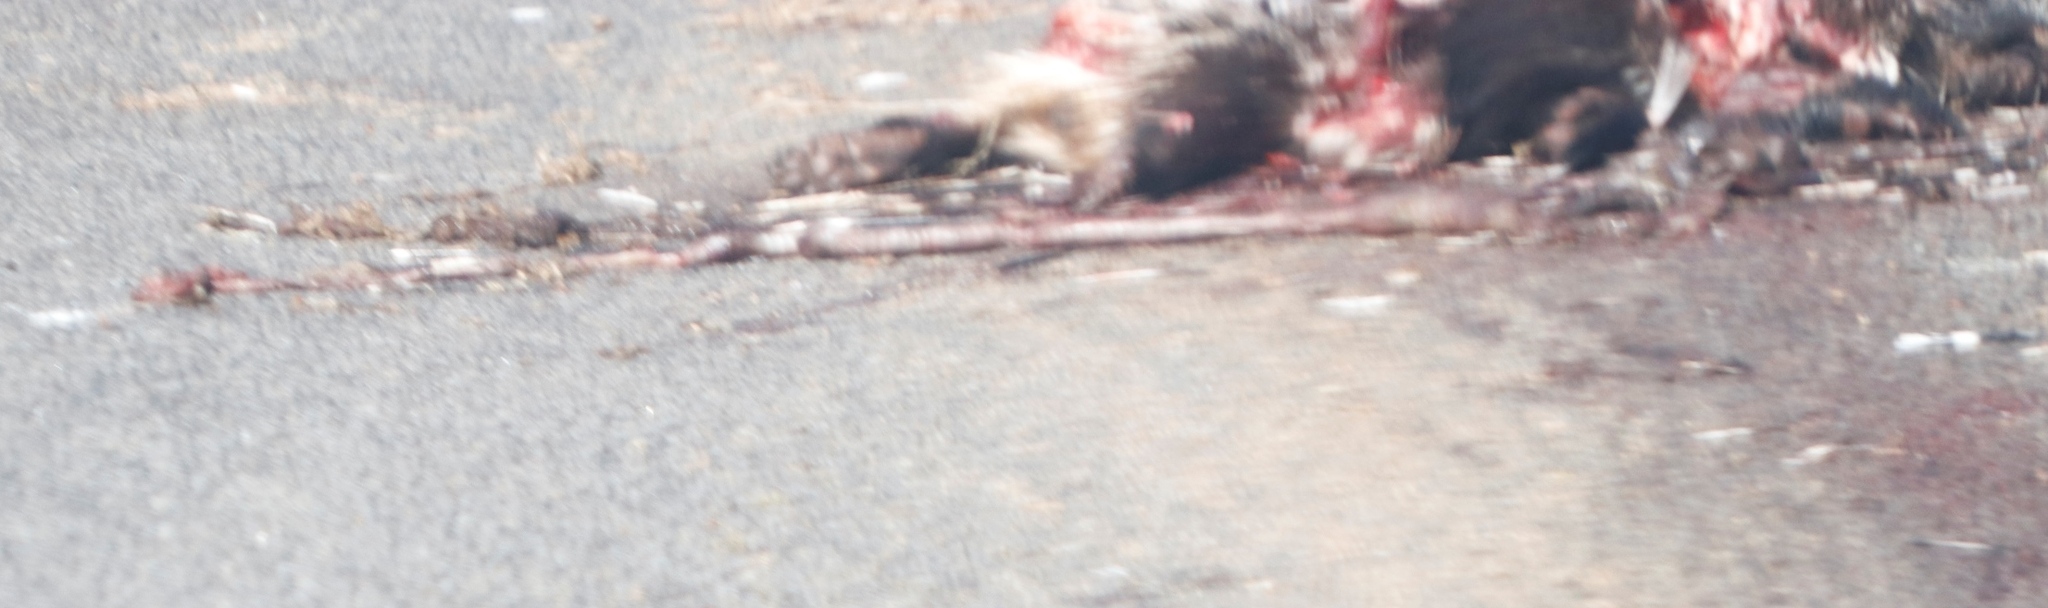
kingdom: Animalia
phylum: Chordata
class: Mammalia
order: Rodentia
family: Hystricidae
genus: Hystrix
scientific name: Hystrix africaeaustralis
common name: Cape porcupine
